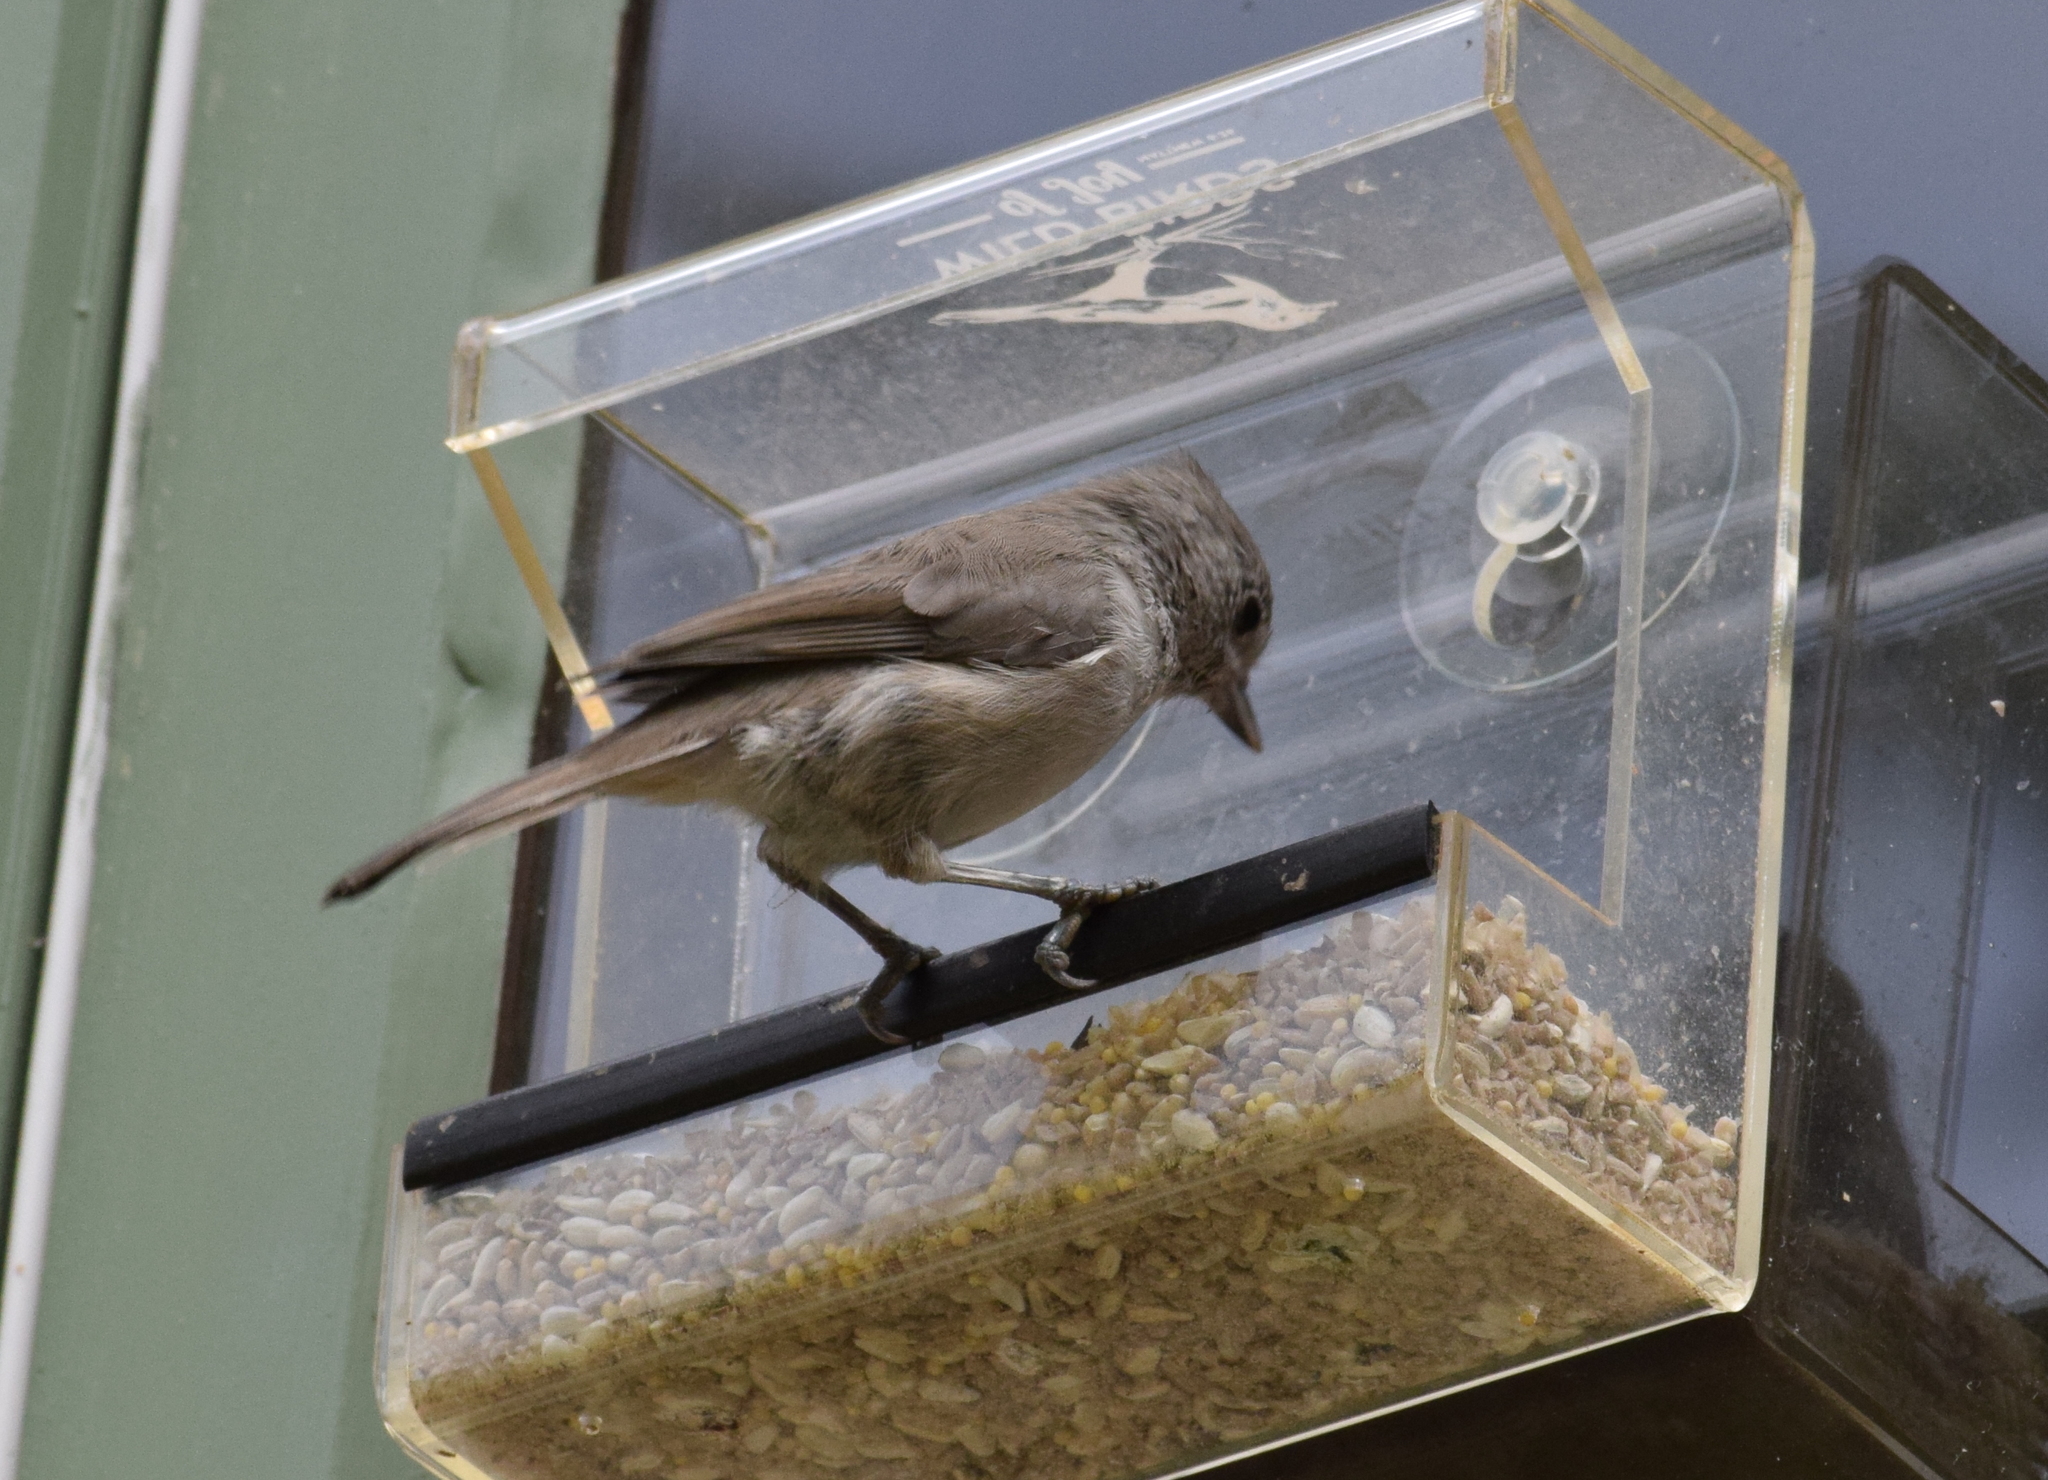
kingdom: Animalia
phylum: Chordata
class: Aves
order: Passeriformes
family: Paridae
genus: Baeolophus
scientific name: Baeolophus inornatus
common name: Oak titmouse
